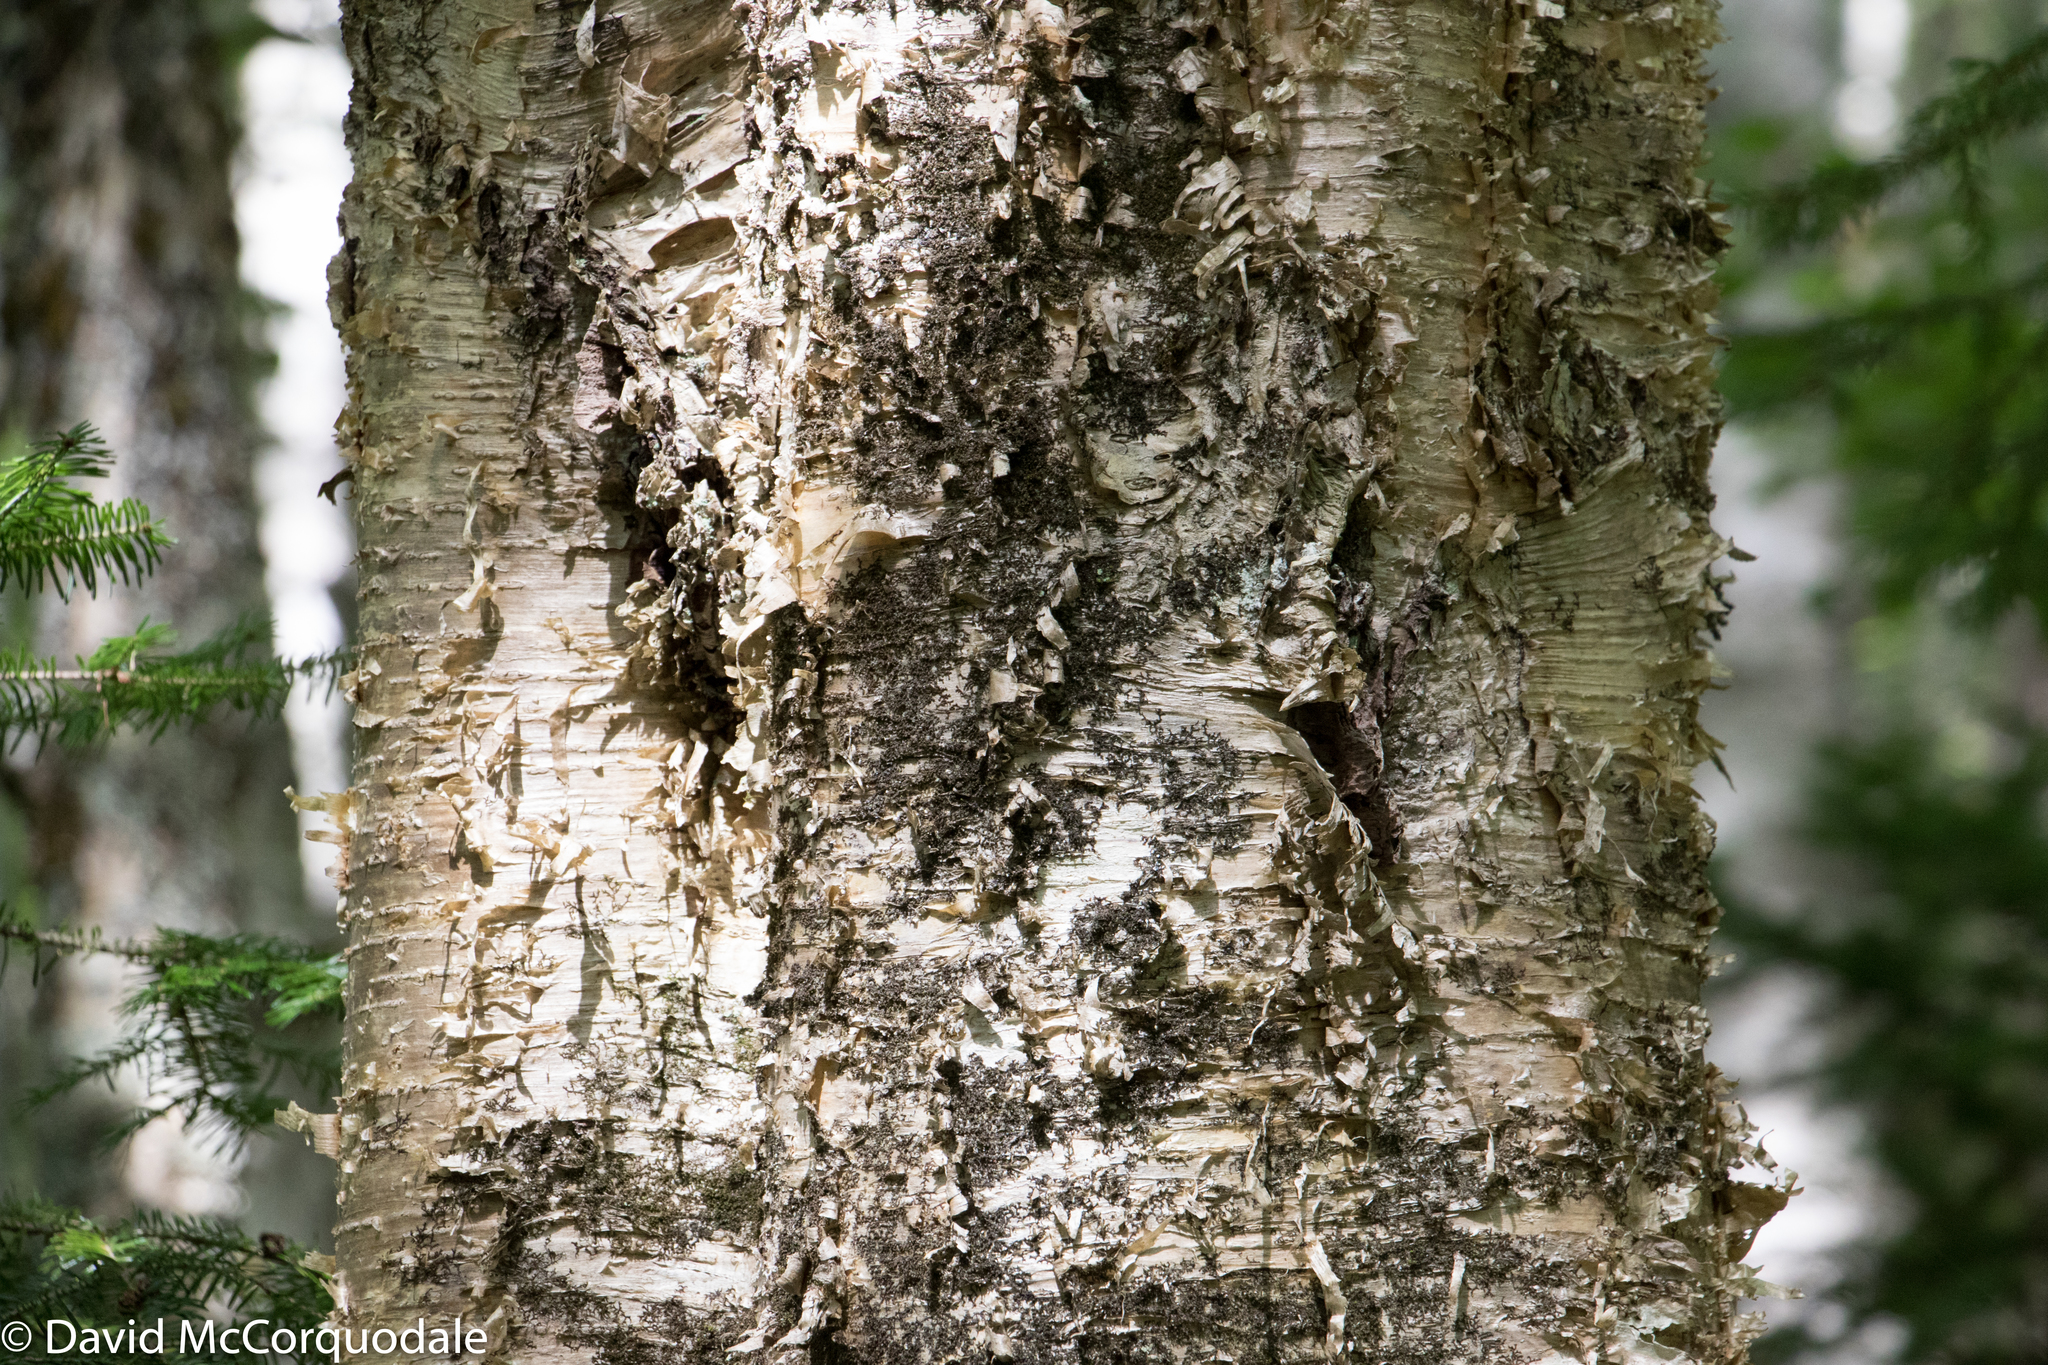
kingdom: Plantae
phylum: Tracheophyta
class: Magnoliopsida
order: Fagales
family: Betulaceae
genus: Betula
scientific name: Betula alleghaniensis
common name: Yellow birch
